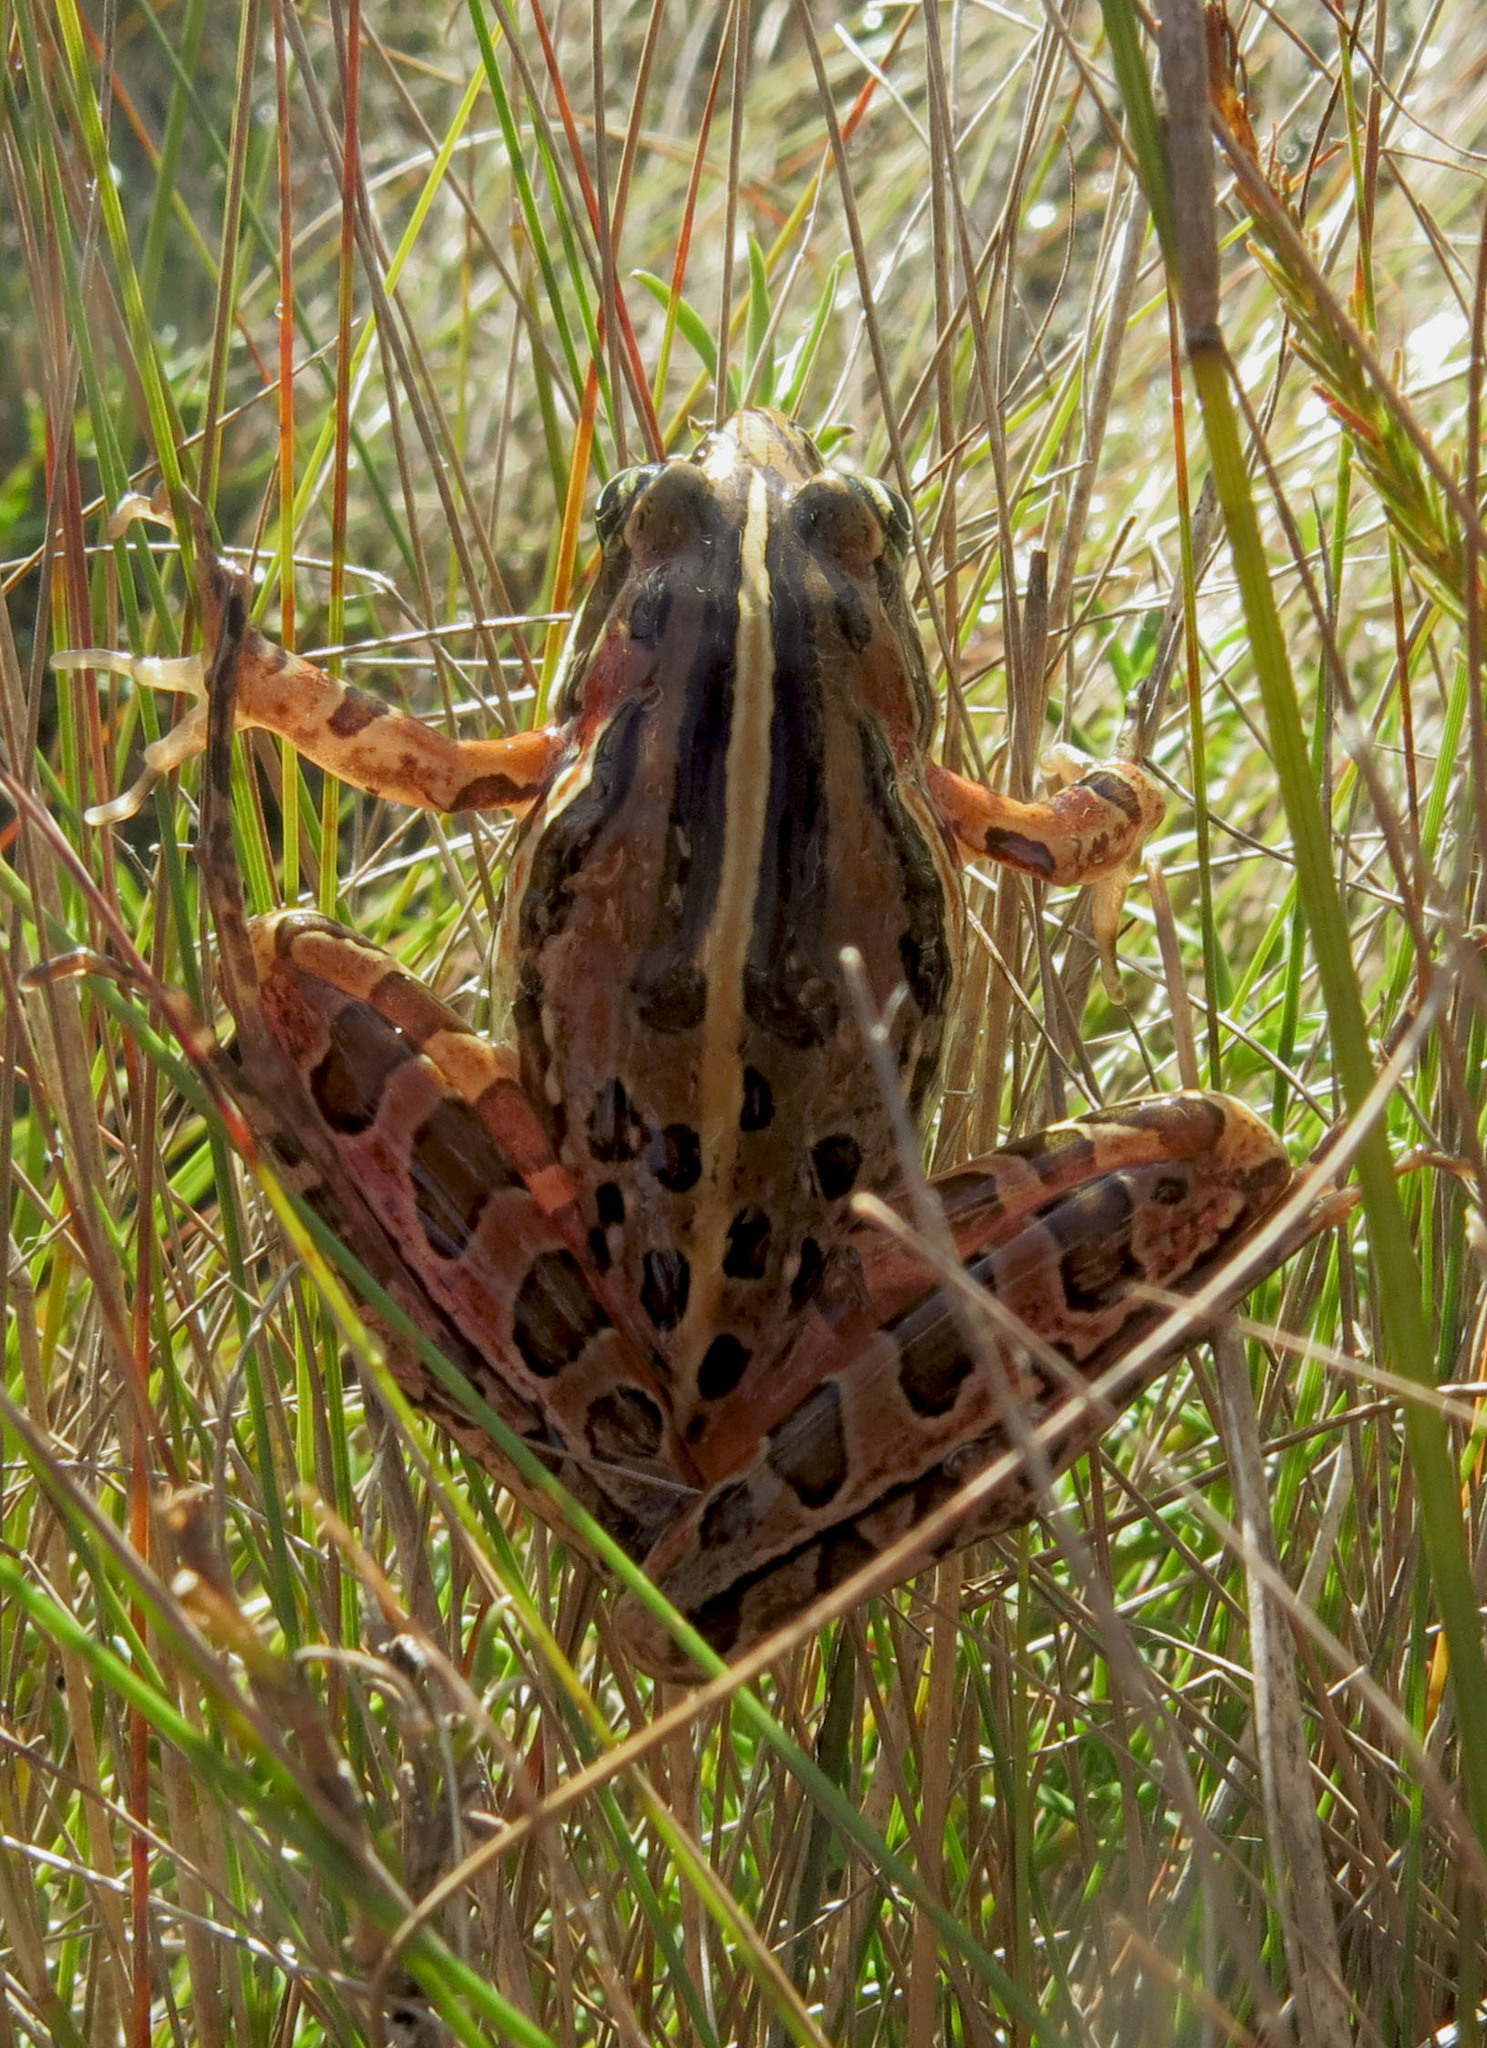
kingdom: Animalia
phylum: Chordata
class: Amphibia
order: Anura
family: Pyxicephalidae
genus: Strongylopus
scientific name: Strongylopus bonaespei
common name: Banded stream frog
